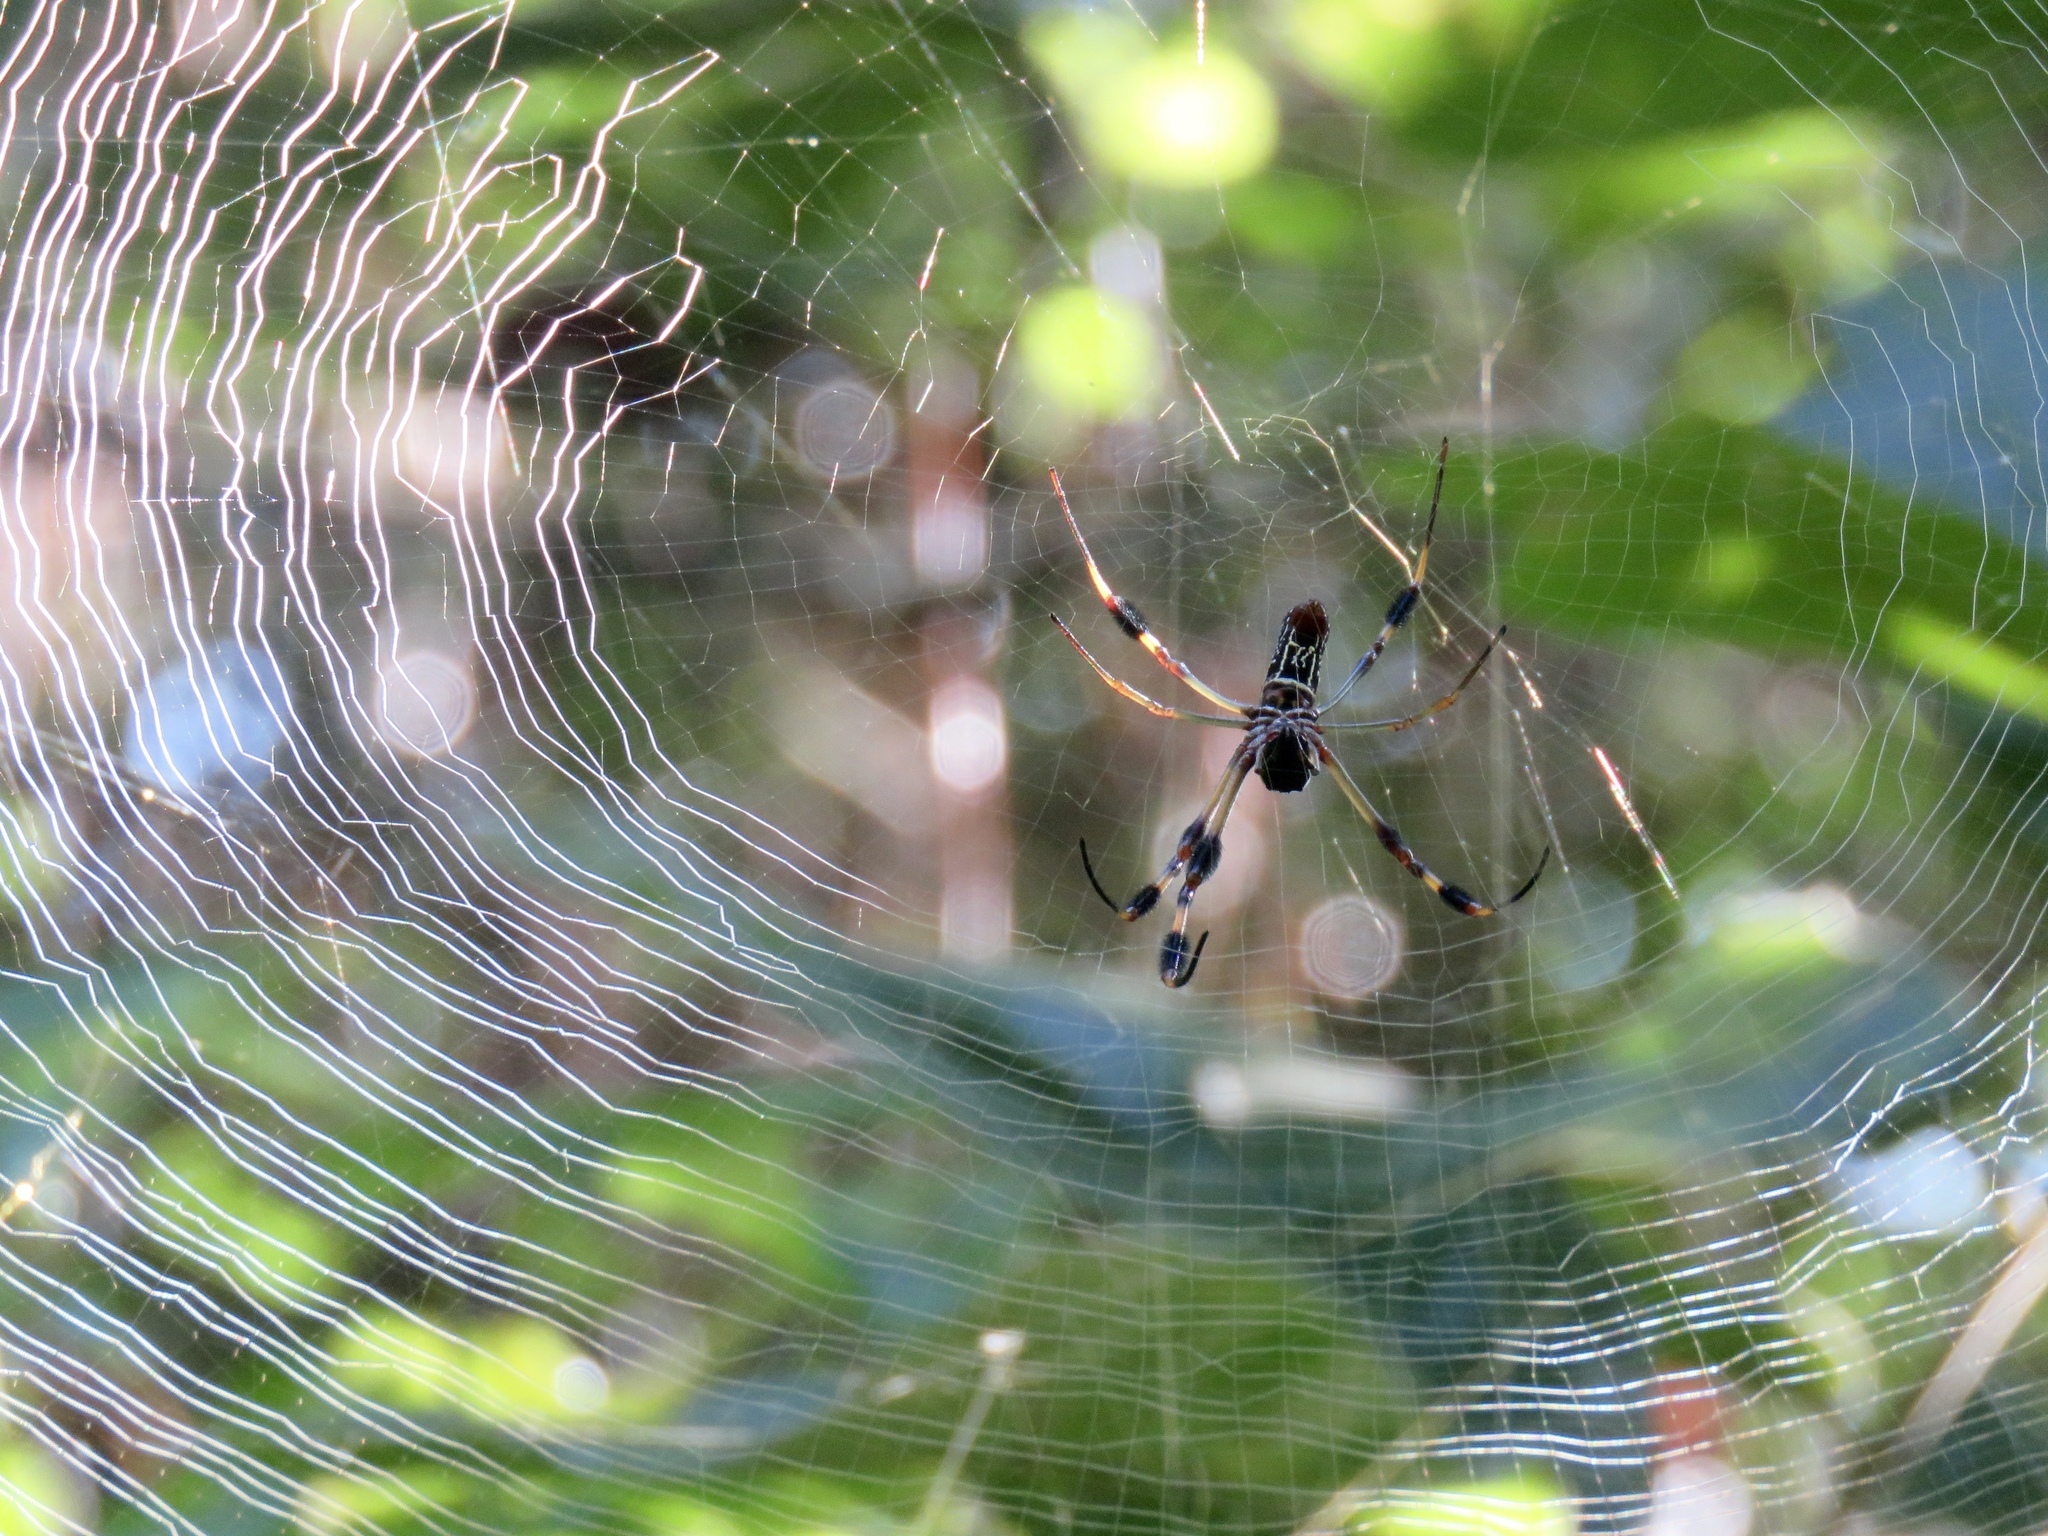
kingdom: Animalia
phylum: Arthropoda
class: Arachnida
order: Araneae
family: Araneidae
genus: Trichonephila
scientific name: Trichonephila clavipes
